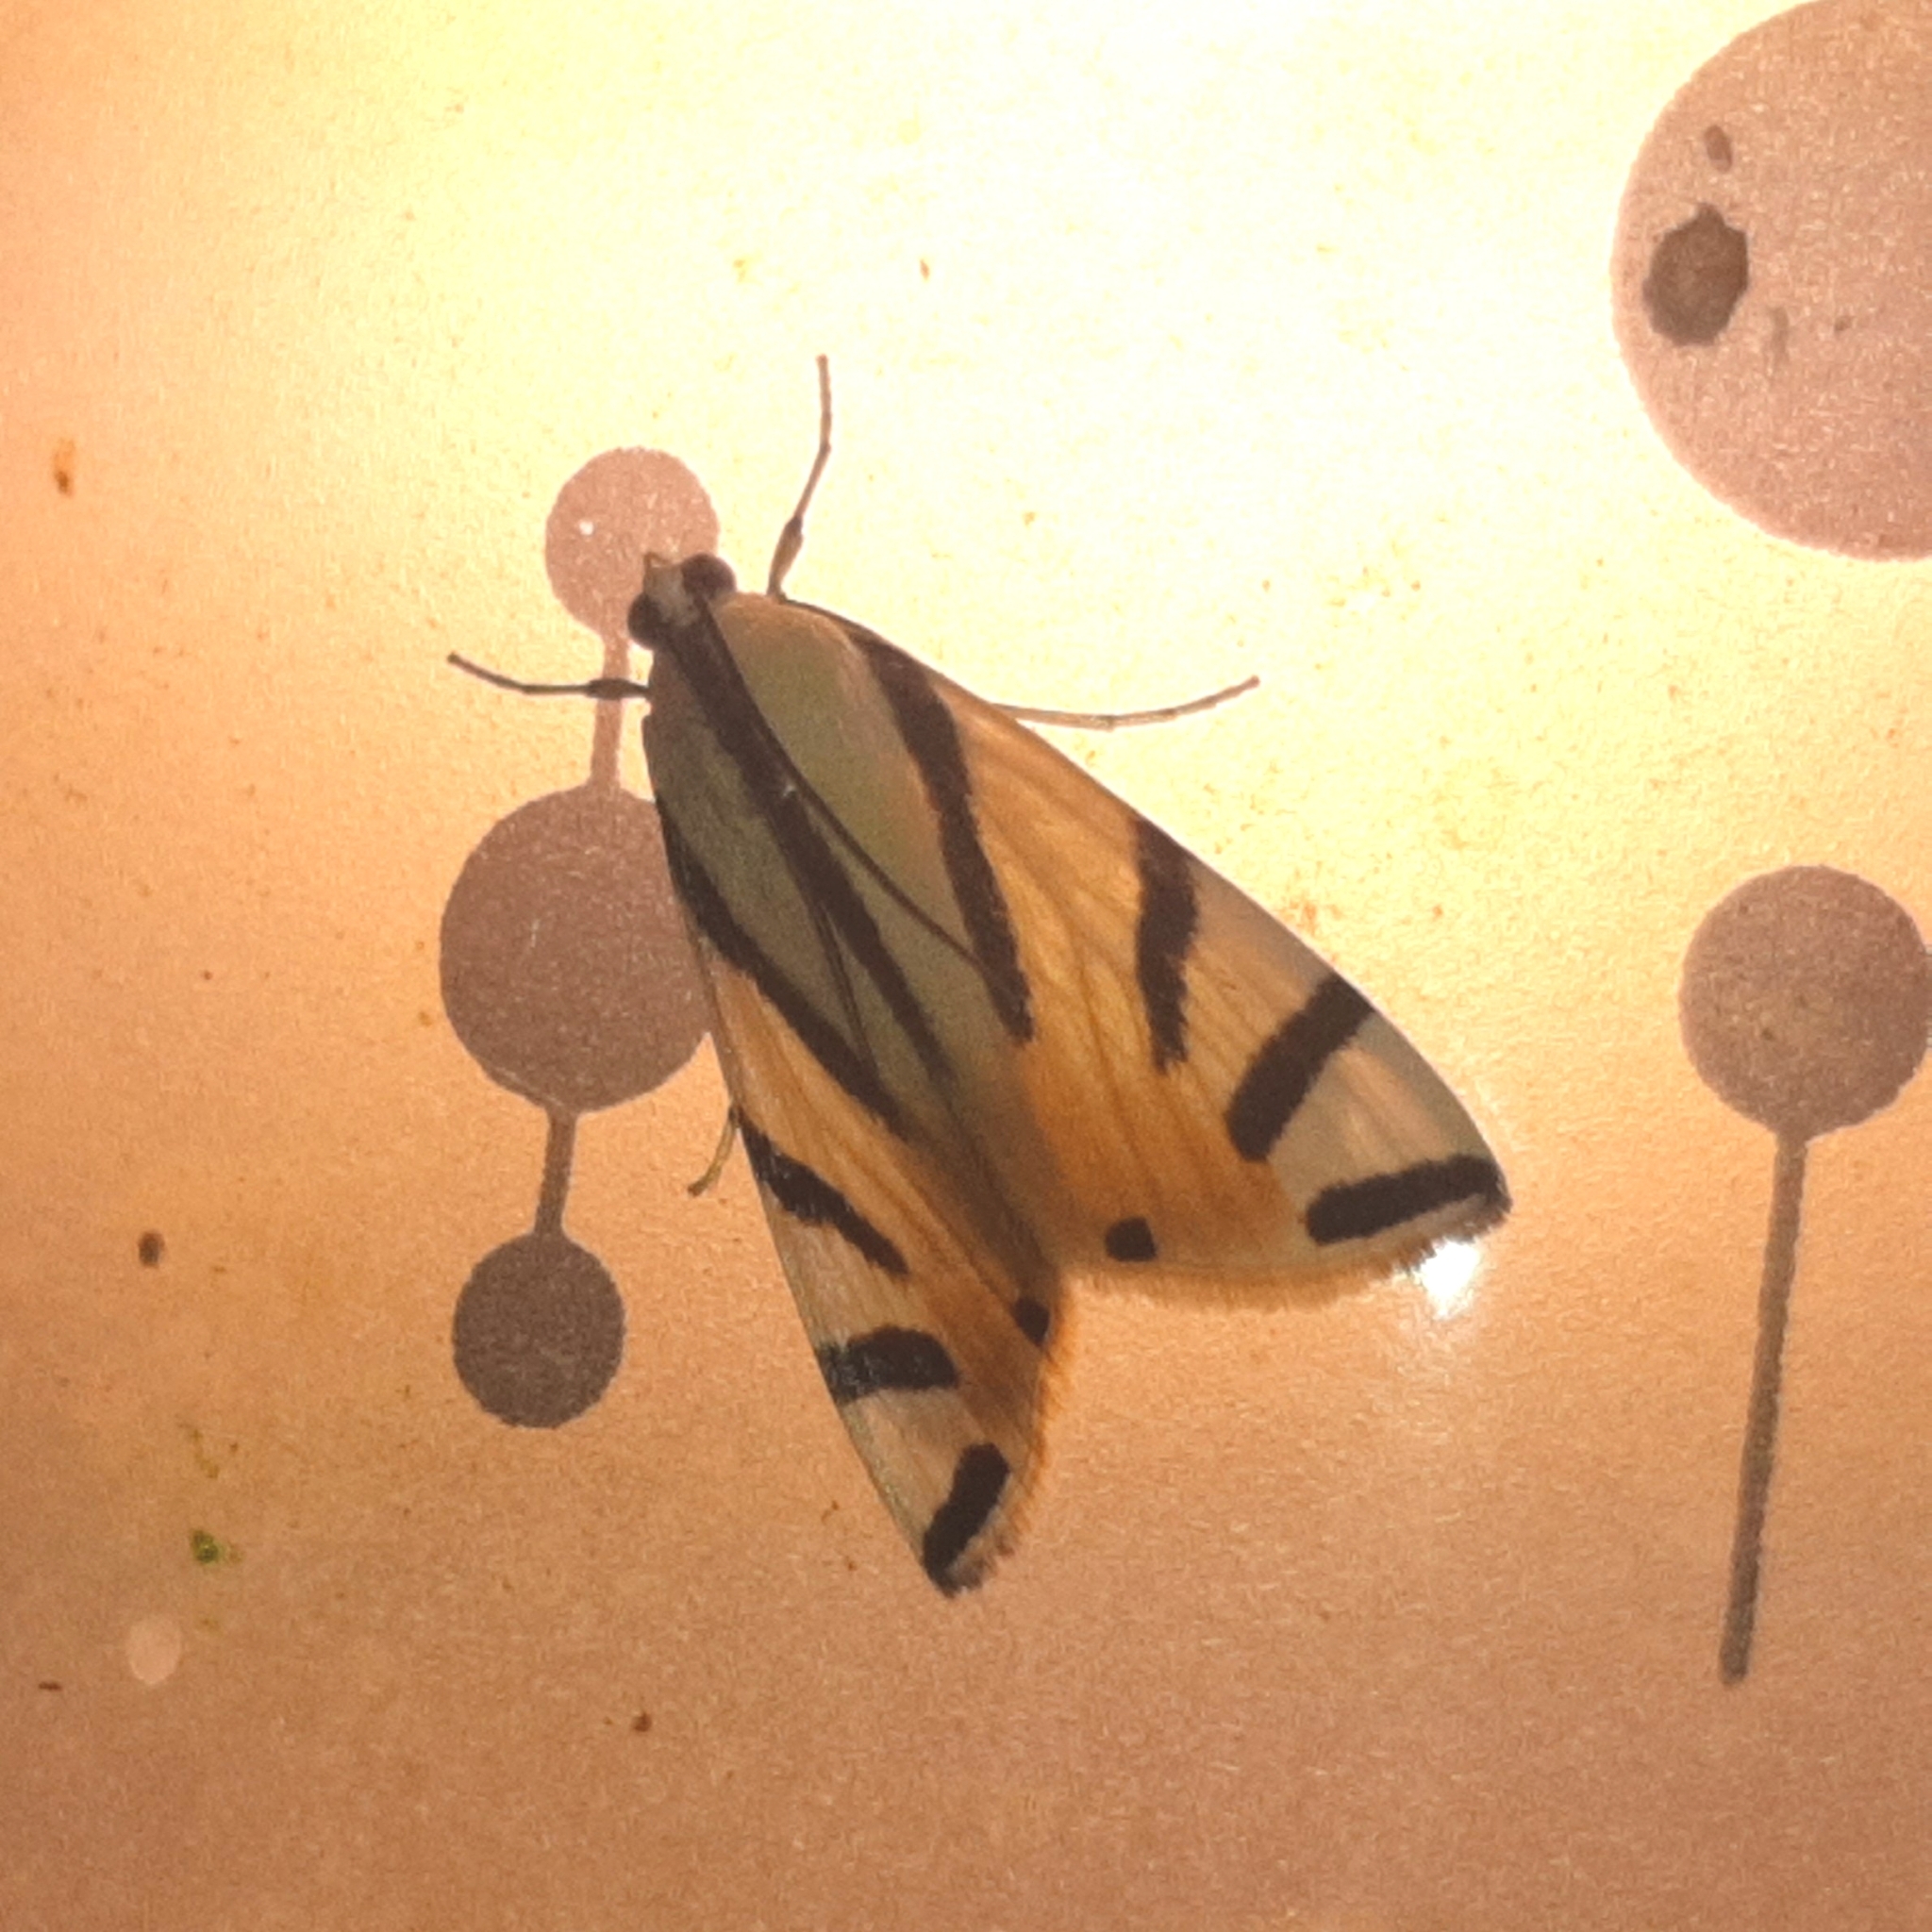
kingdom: Animalia
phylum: Arthropoda
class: Insecta
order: Lepidoptera
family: Crambidae
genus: Dichogama
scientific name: Dichogama prognealis
